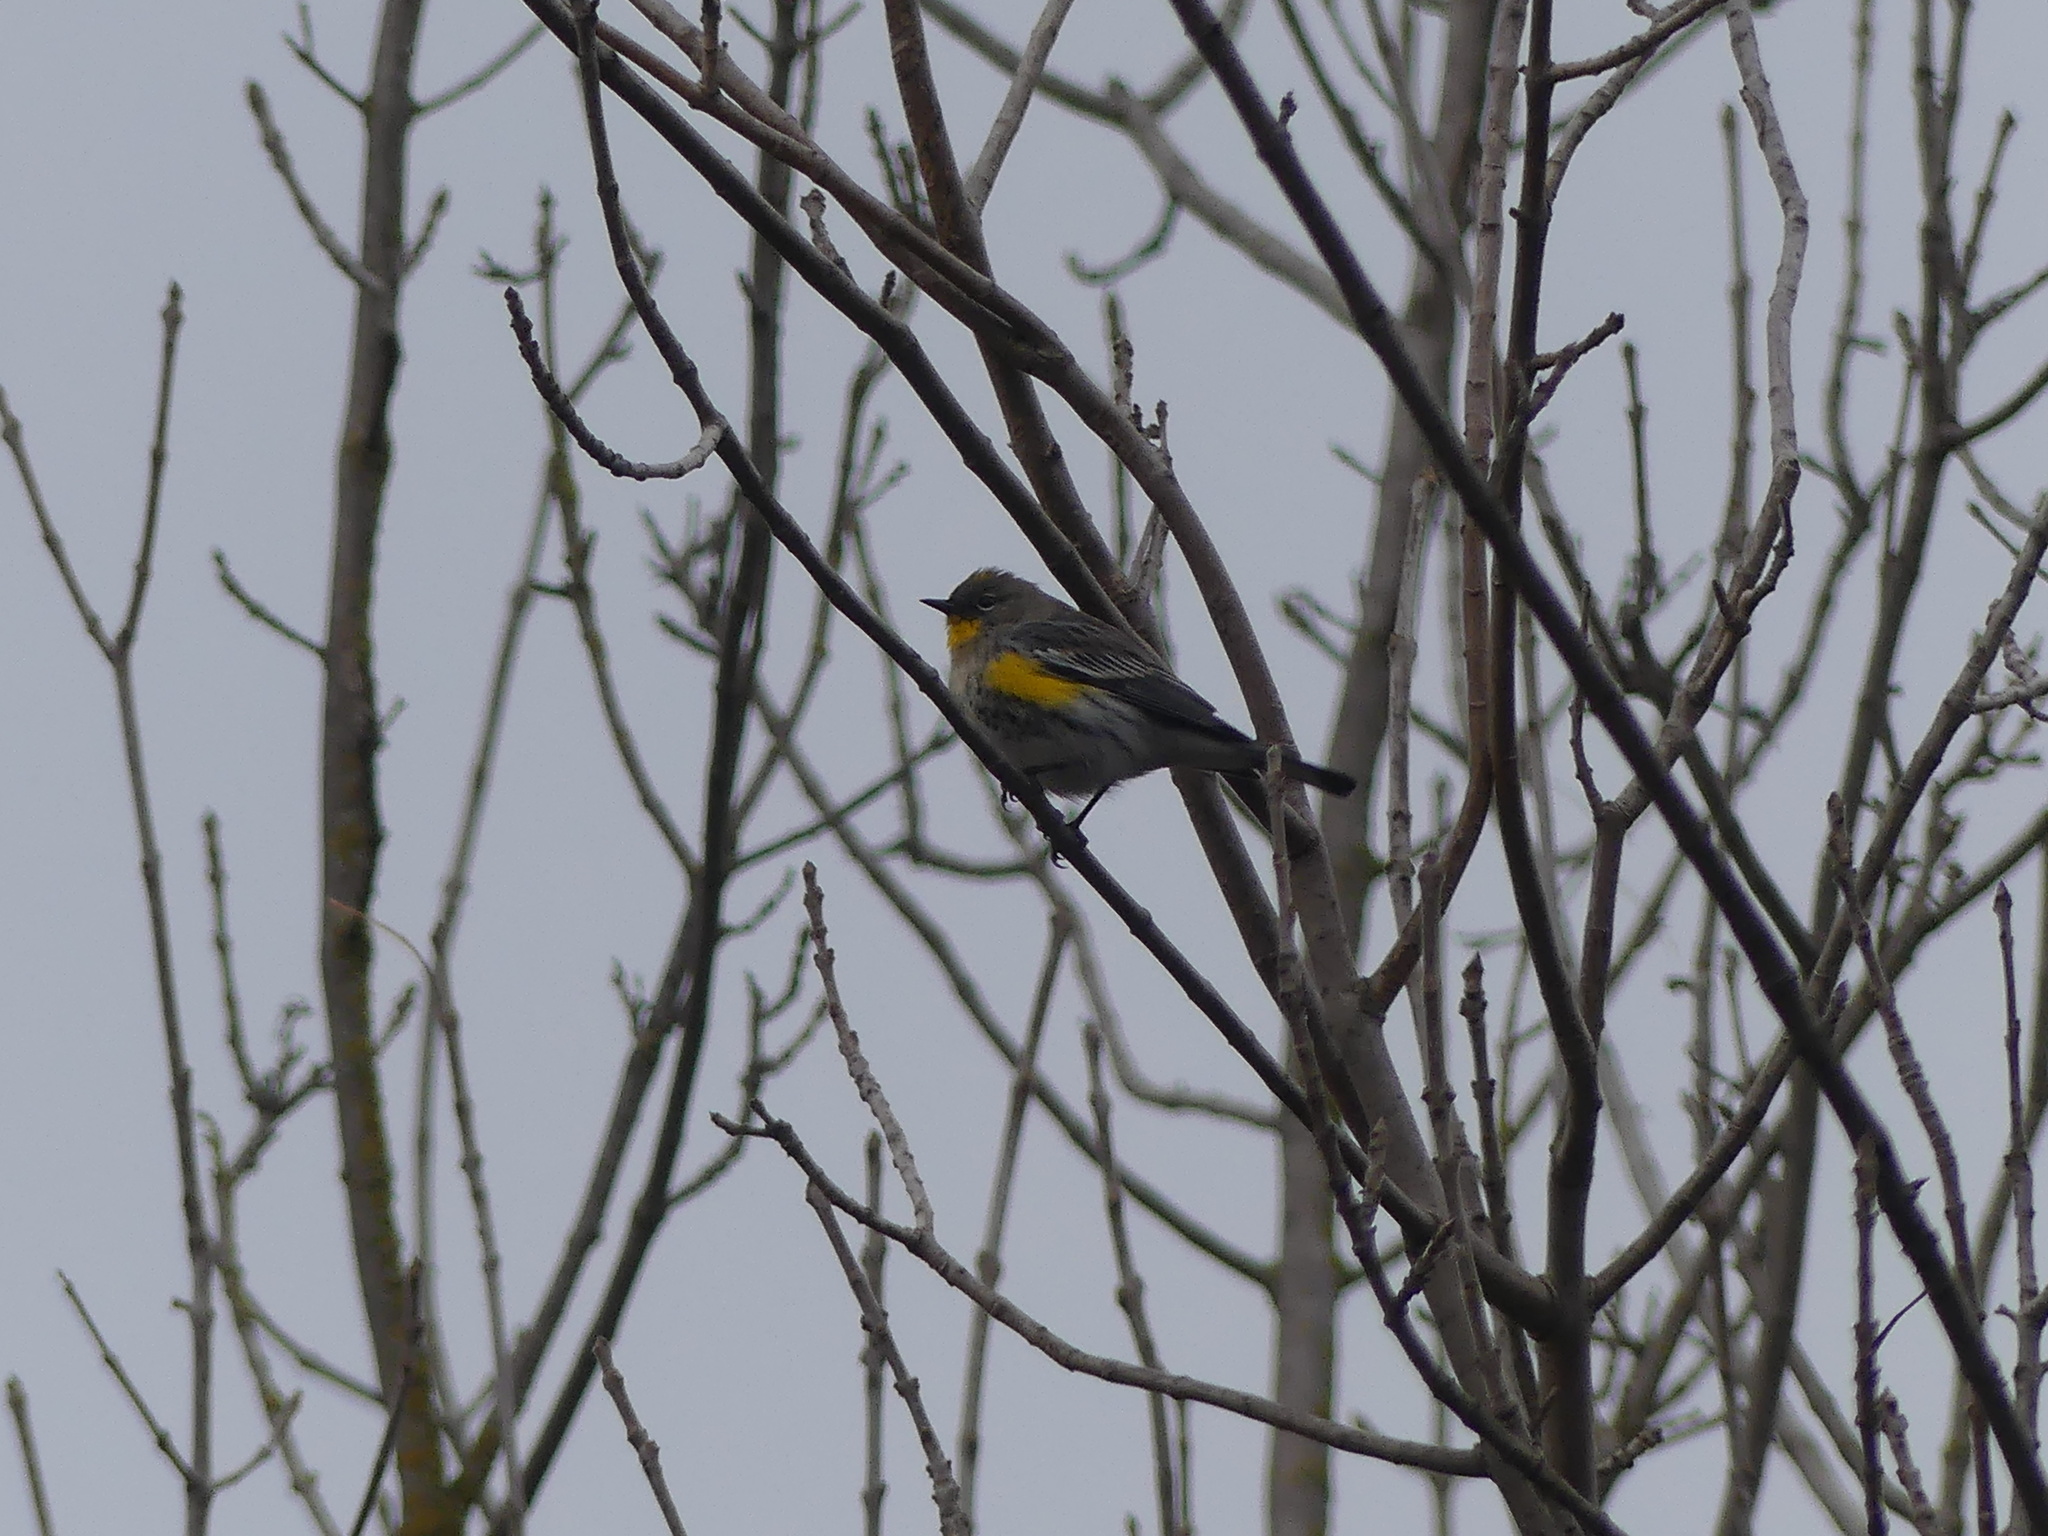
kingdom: Animalia
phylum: Chordata
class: Aves
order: Passeriformes
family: Parulidae
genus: Setophaga
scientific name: Setophaga coronata
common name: Myrtle warbler
